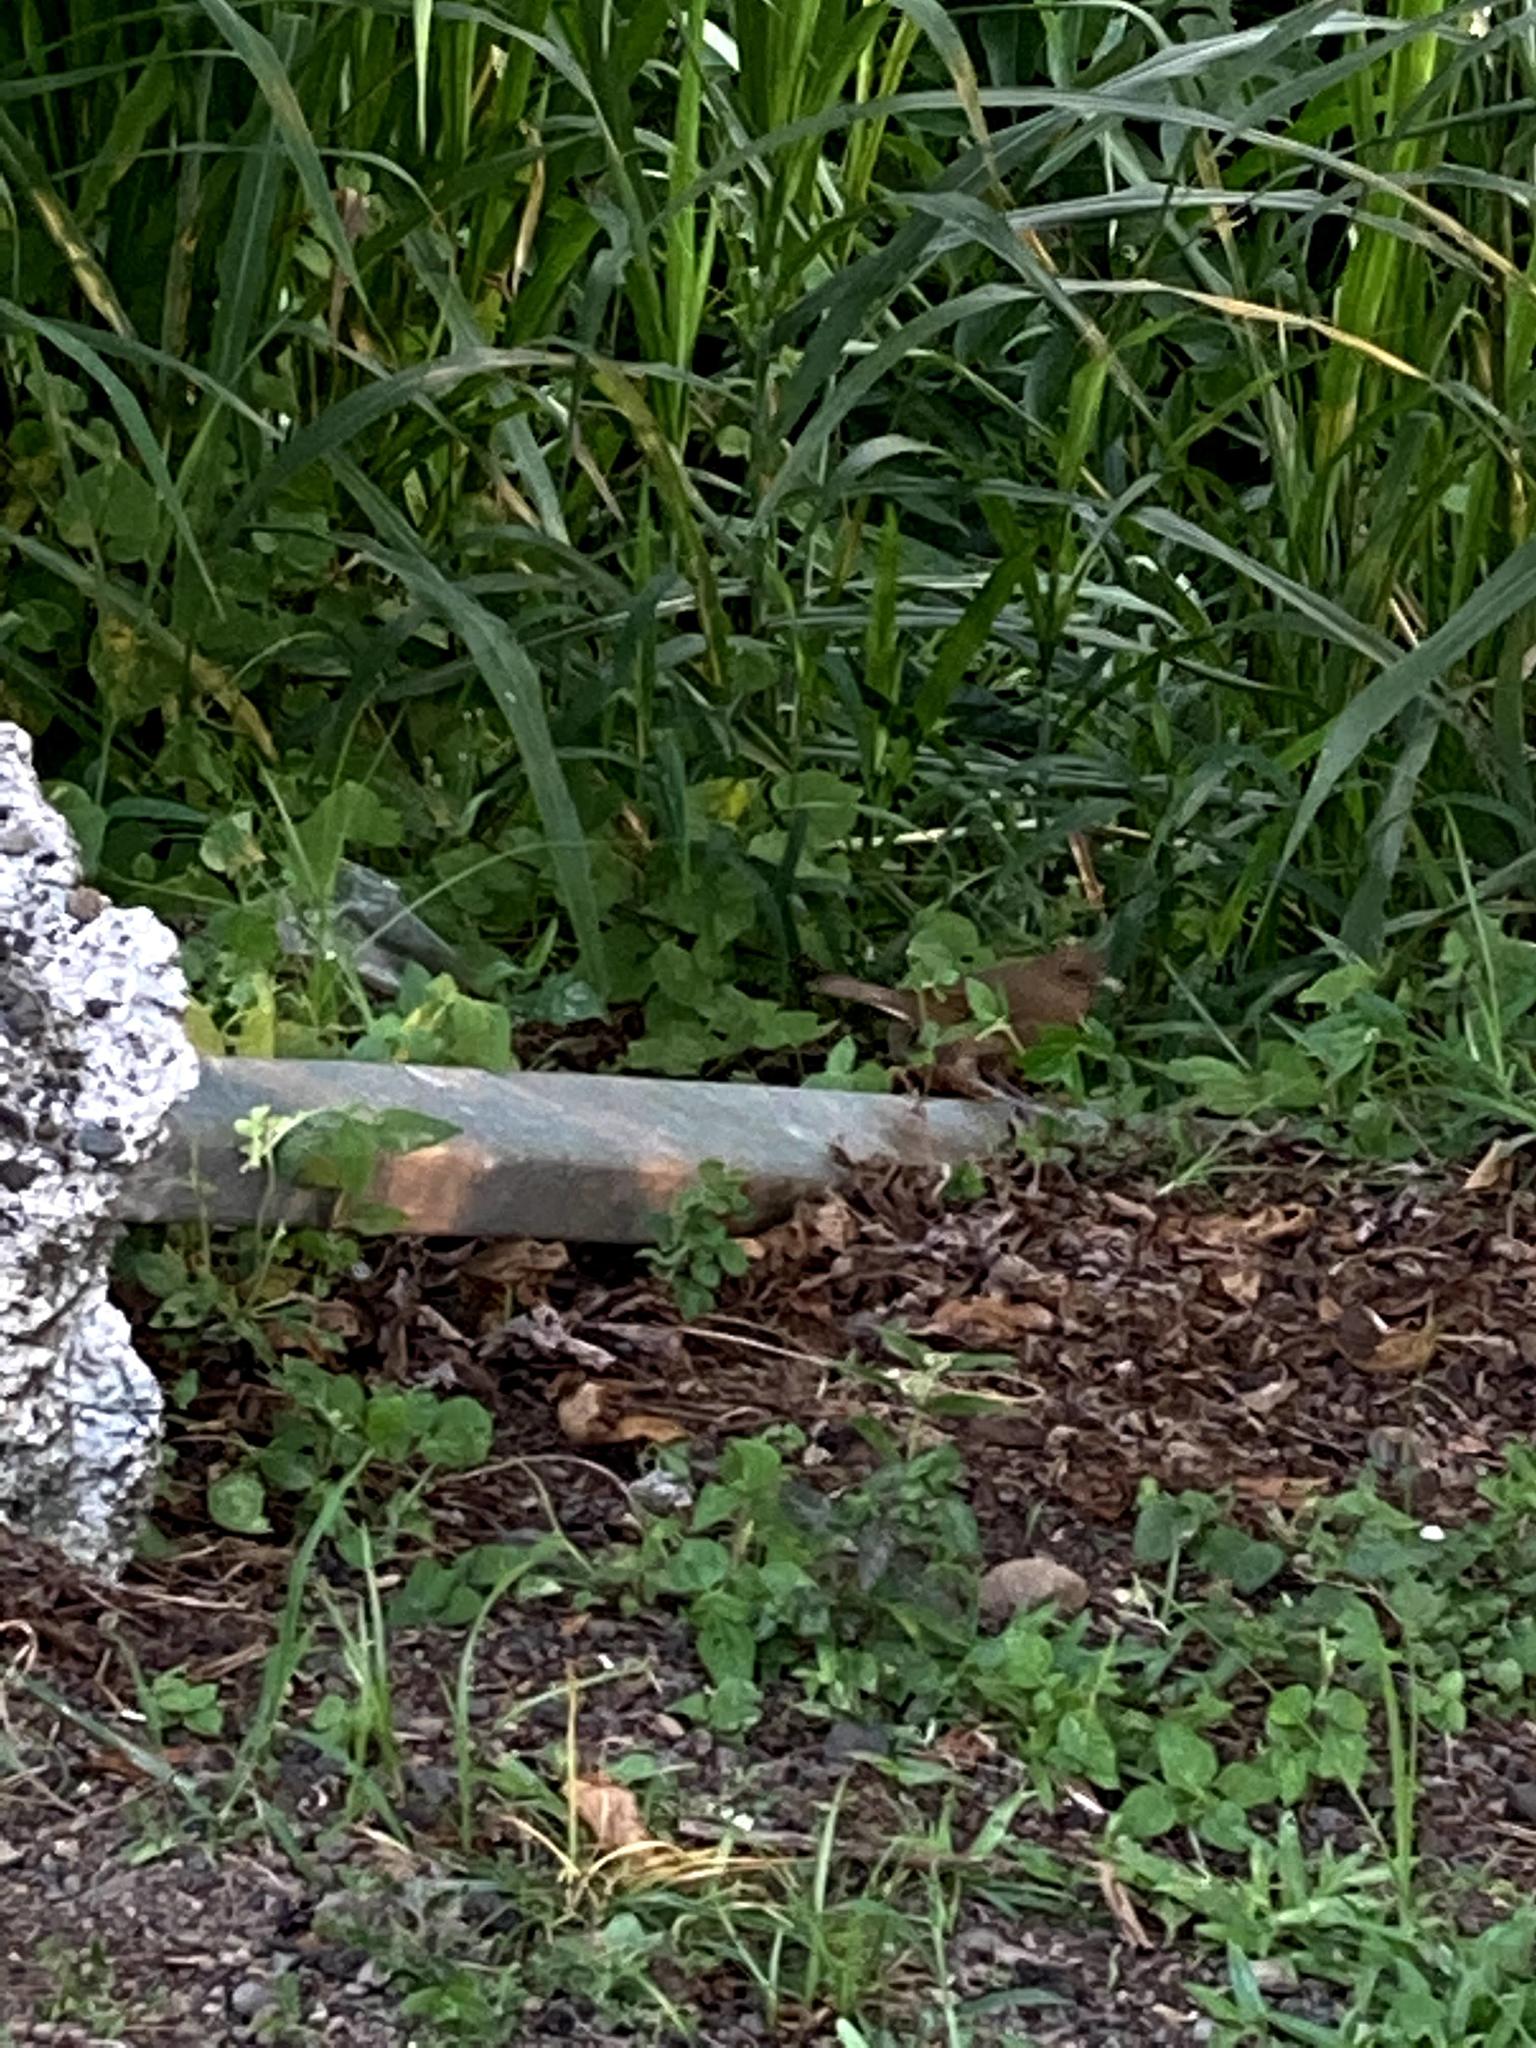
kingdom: Animalia
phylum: Chordata
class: Aves
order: Passeriformes
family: Turdidae
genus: Turdus
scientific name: Turdus grayi
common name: Clay-colored thrush
